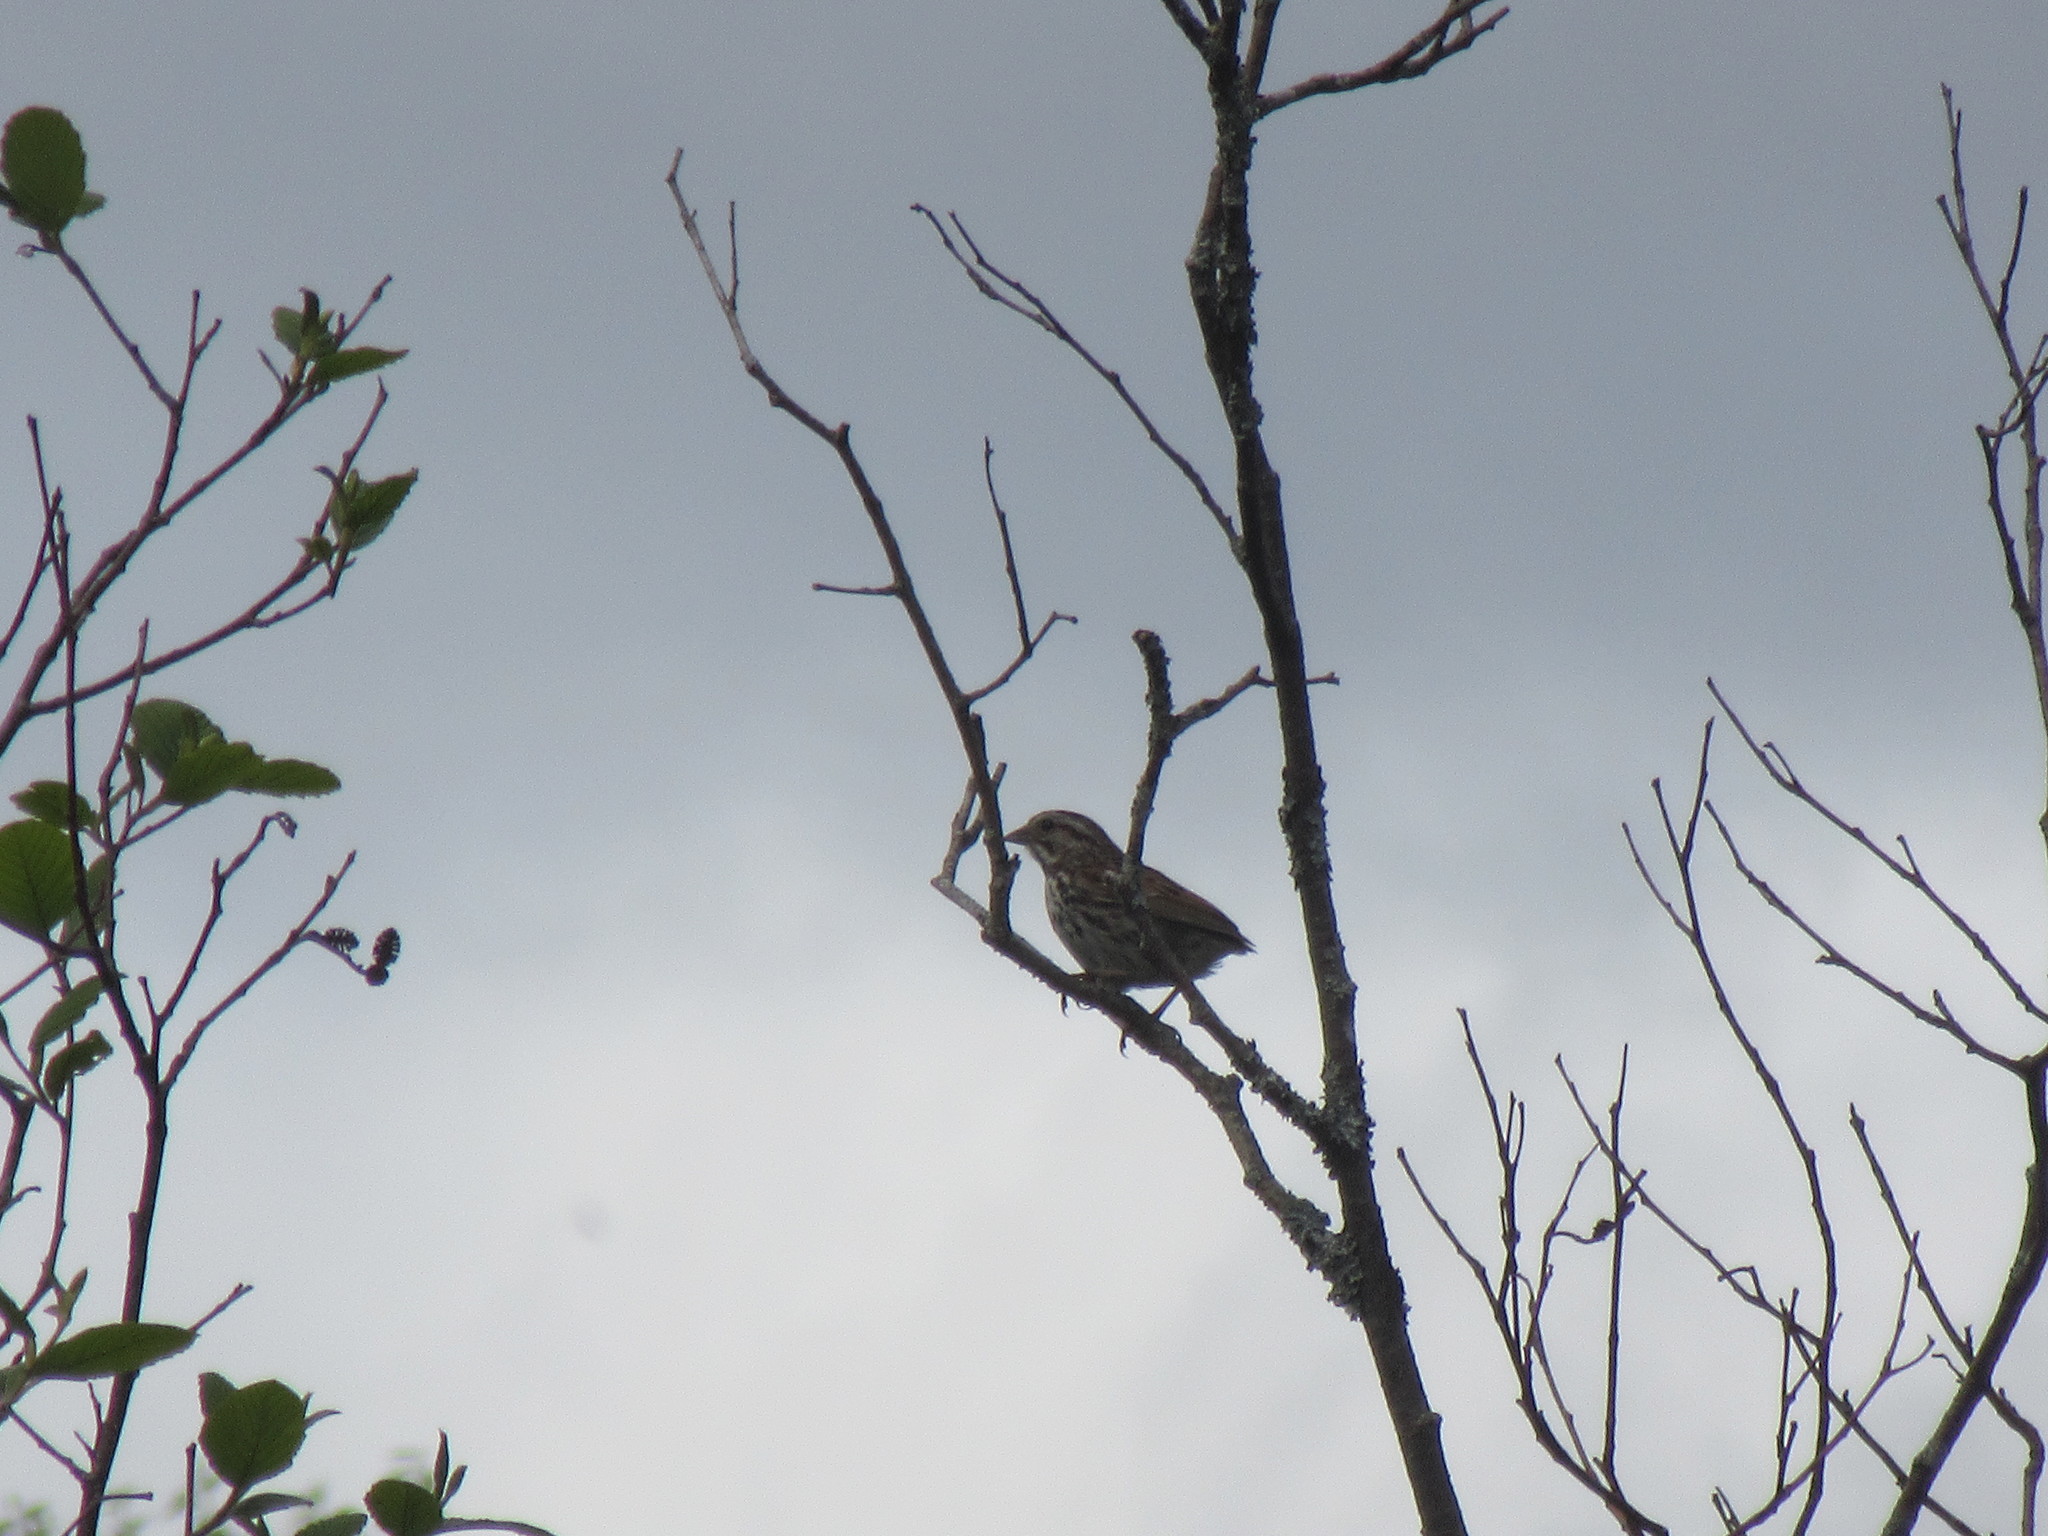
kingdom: Animalia
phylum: Chordata
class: Aves
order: Passeriformes
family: Passerellidae
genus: Melospiza
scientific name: Melospiza melodia
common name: Song sparrow
